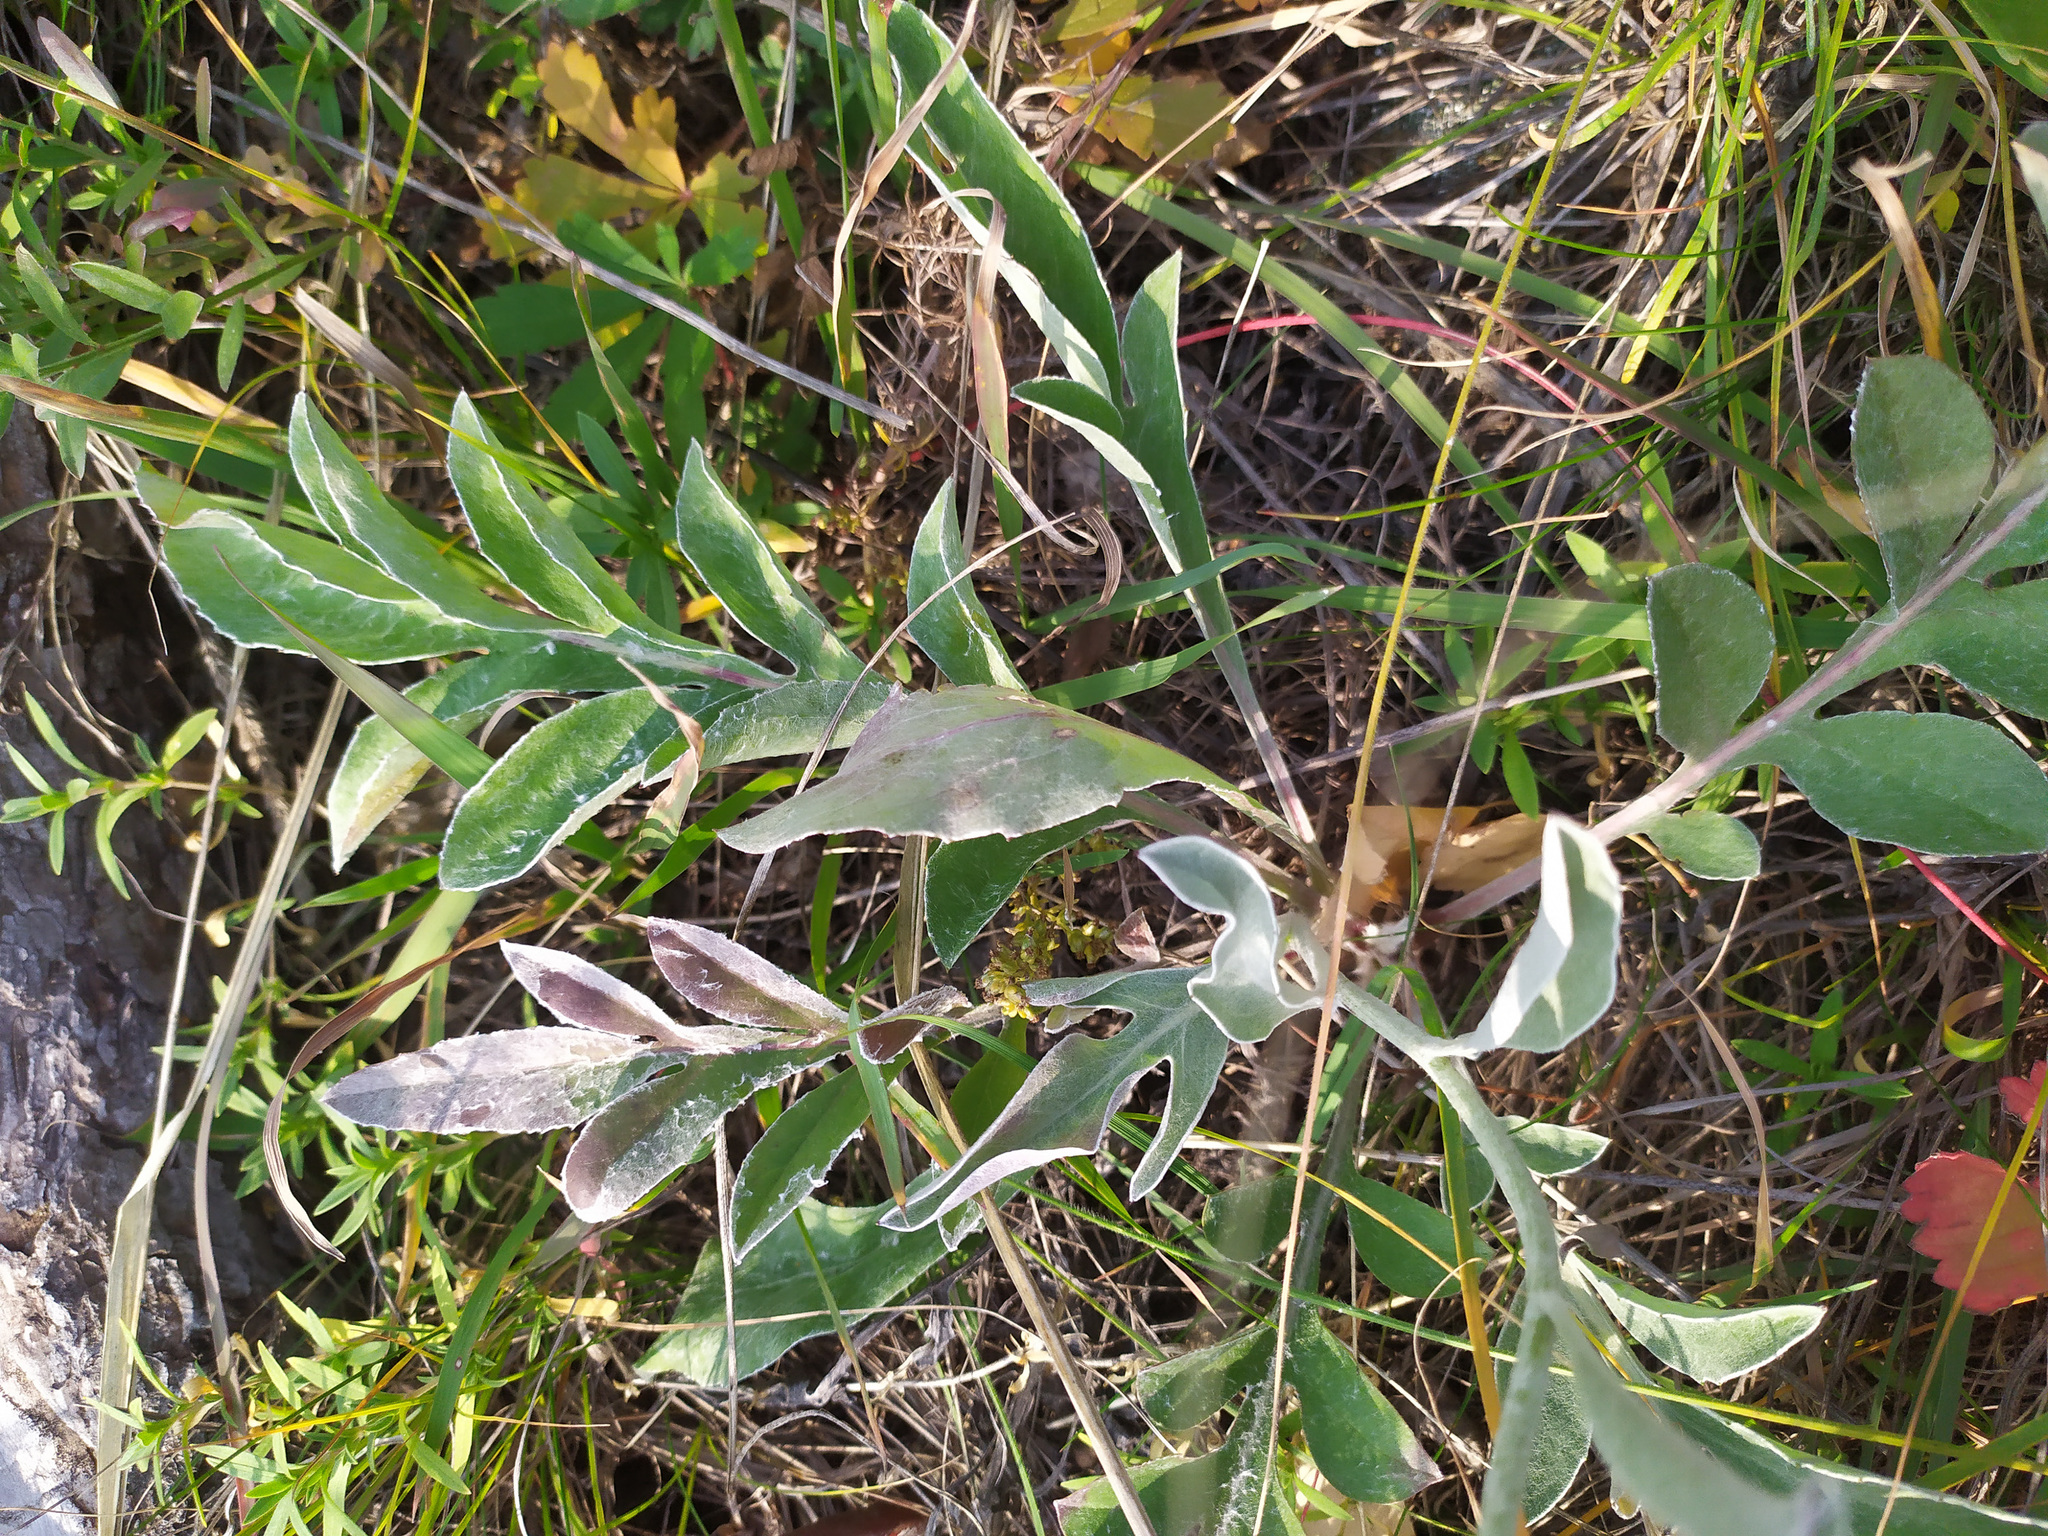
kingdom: Plantae
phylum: Tracheophyta
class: Magnoliopsida
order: Asterales
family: Asteraceae
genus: Psephellus
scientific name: Psephellus sibiricus
